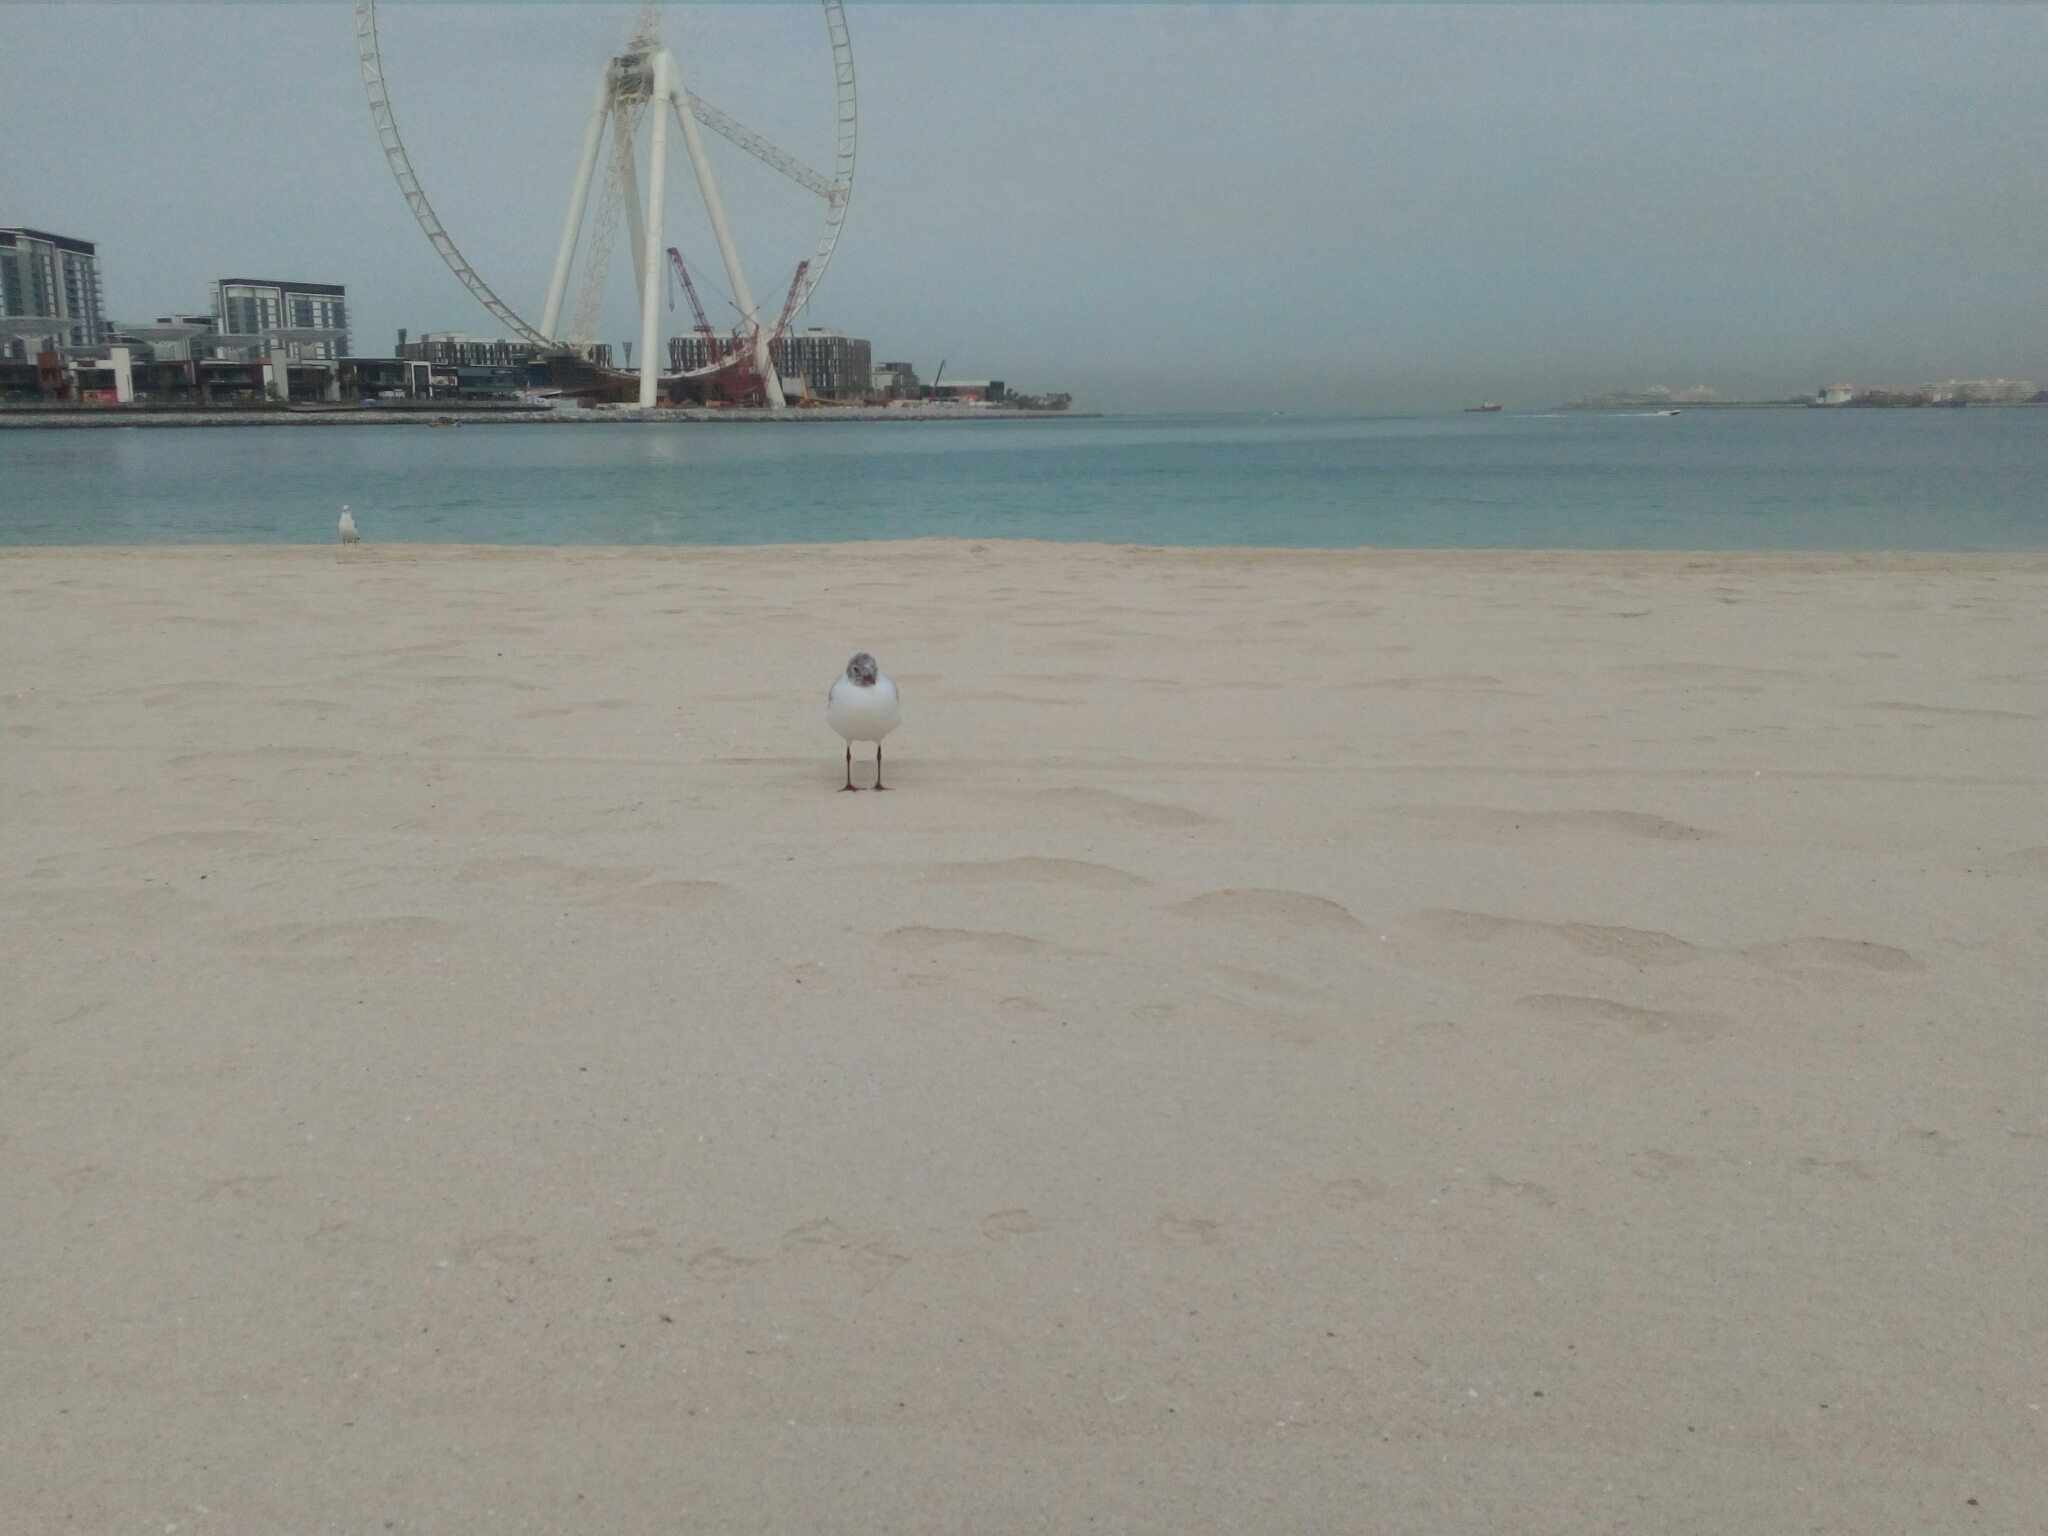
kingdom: Animalia
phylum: Chordata
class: Aves
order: Charadriiformes
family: Laridae
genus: Chroicocephalus
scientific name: Chroicocephalus ridibundus
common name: Black-headed gull
